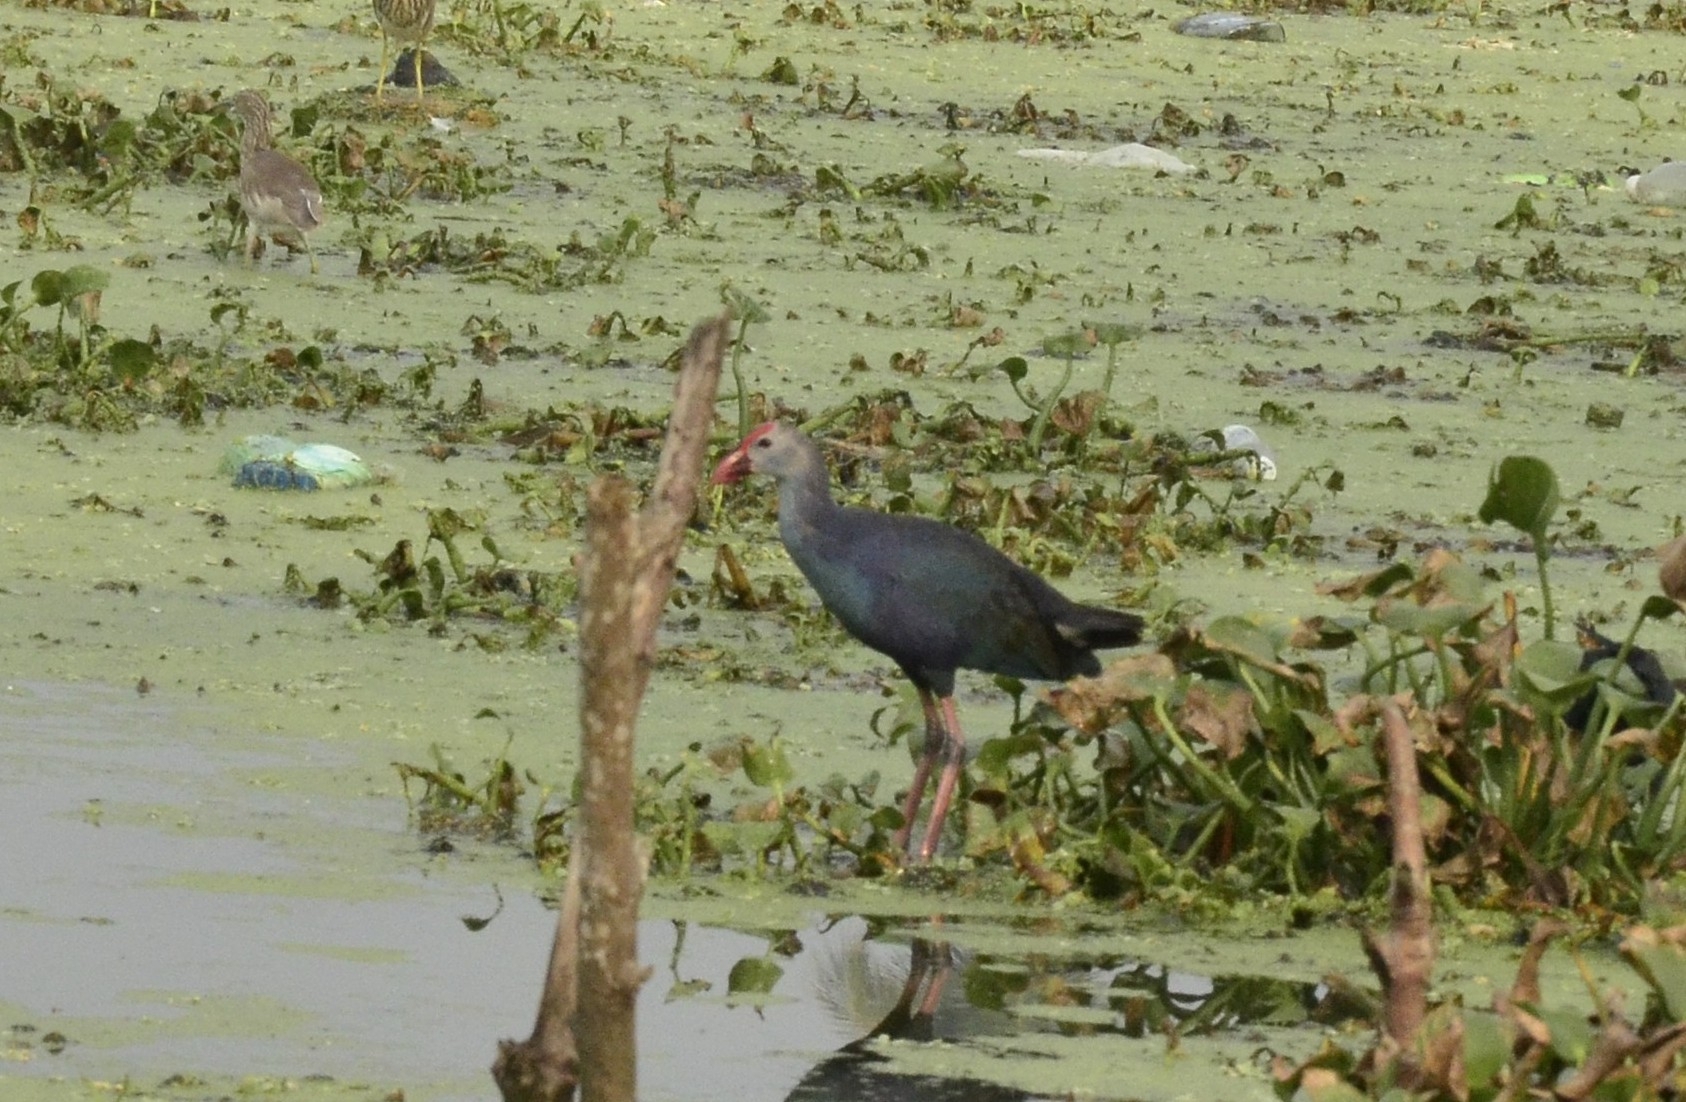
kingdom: Animalia
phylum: Chordata
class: Aves
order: Gruiformes
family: Rallidae
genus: Porphyrio
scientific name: Porphyrio porphyrio
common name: Purple swamphen
